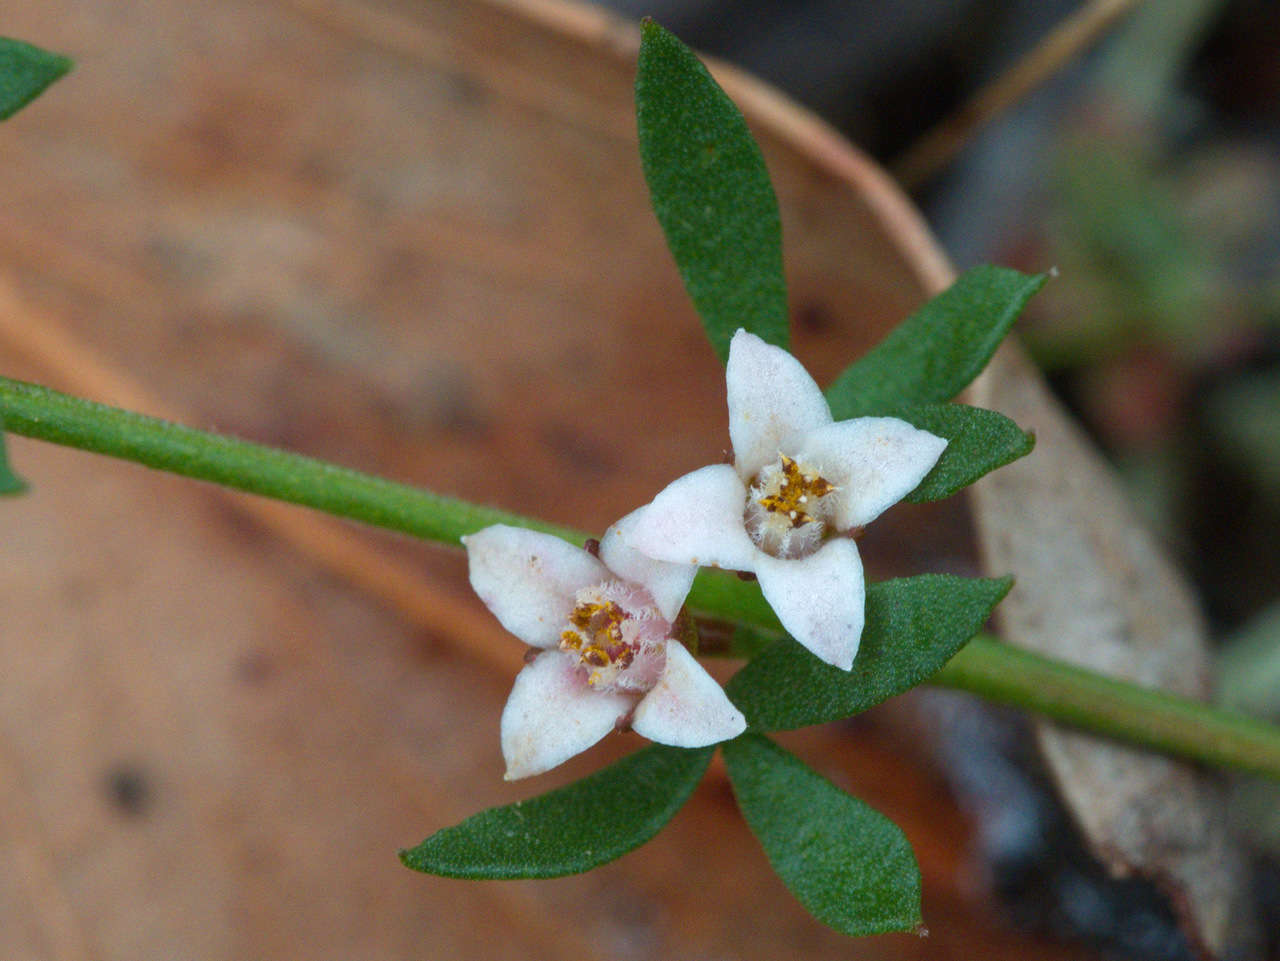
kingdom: Plantae
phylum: Tracheophyta
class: Magnoliopsida
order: Sapindales
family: Rutaceae
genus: Cyanothamnus
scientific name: Cyanothamnus nanus
